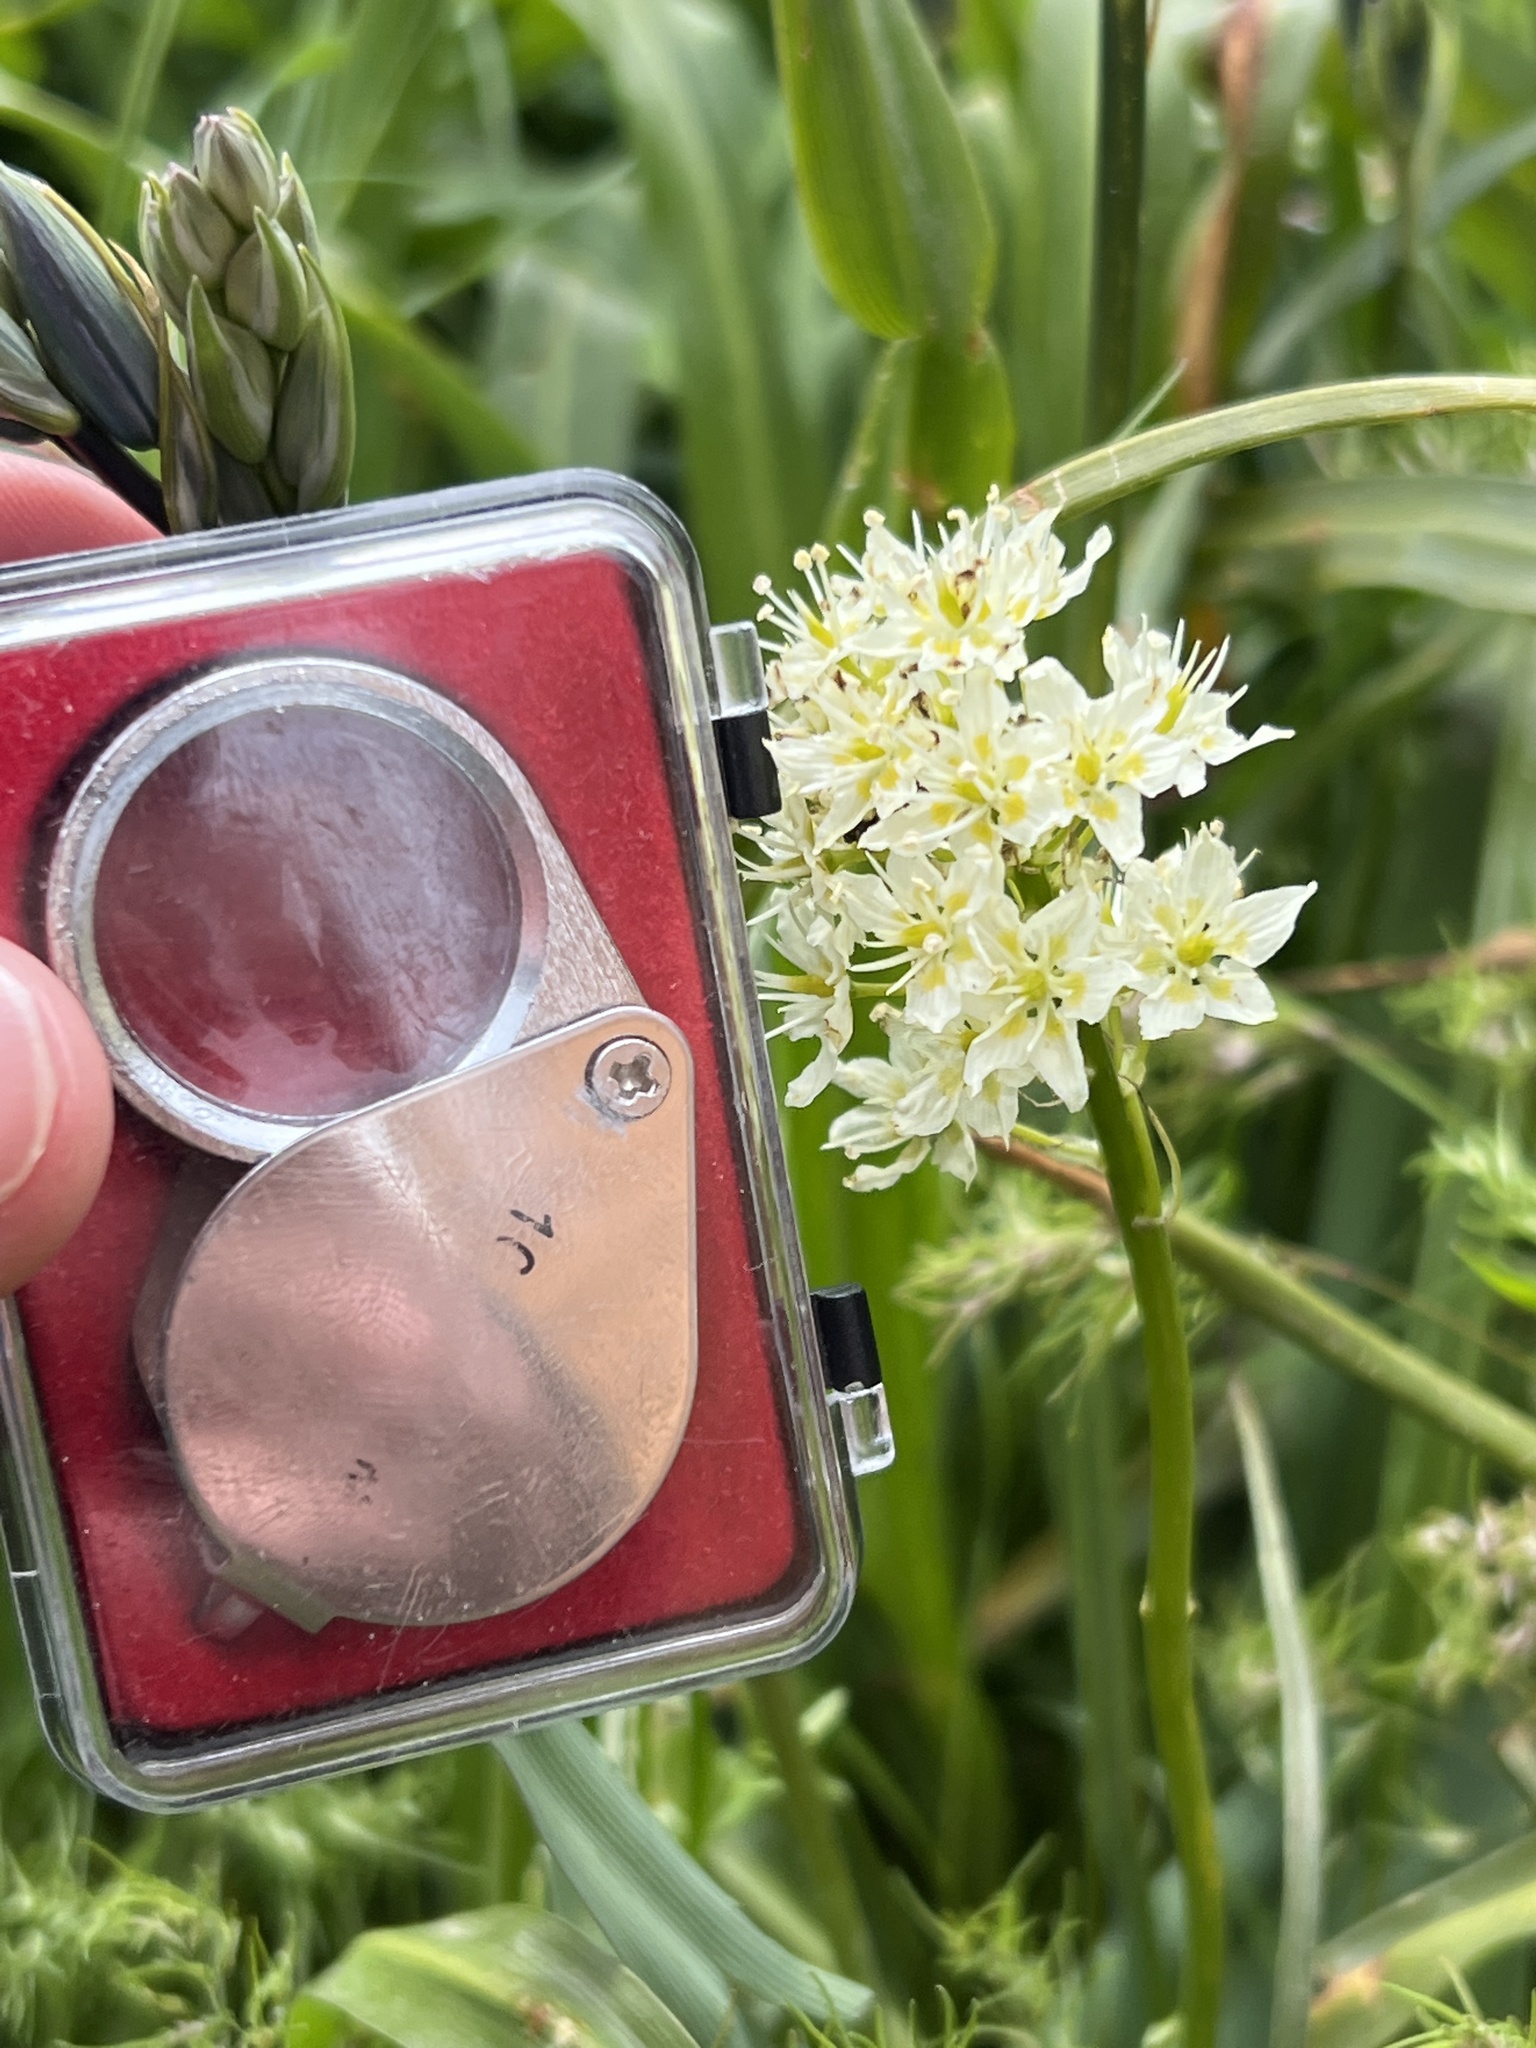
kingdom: Plantae
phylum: Tracheophyta
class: Liliopsida
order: Liliales
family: Melanthiaceae
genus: Toxicoscordion
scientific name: Toxicoscordion venenosum
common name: Meadow death camas
